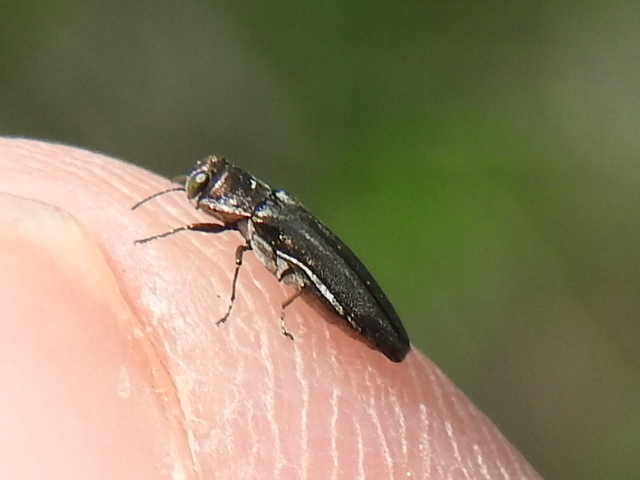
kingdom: Animalia
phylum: Arthropoda
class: Insecta
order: Coleoptera
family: Buprestidae
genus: Agrilus
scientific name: Agrilus paracelti
